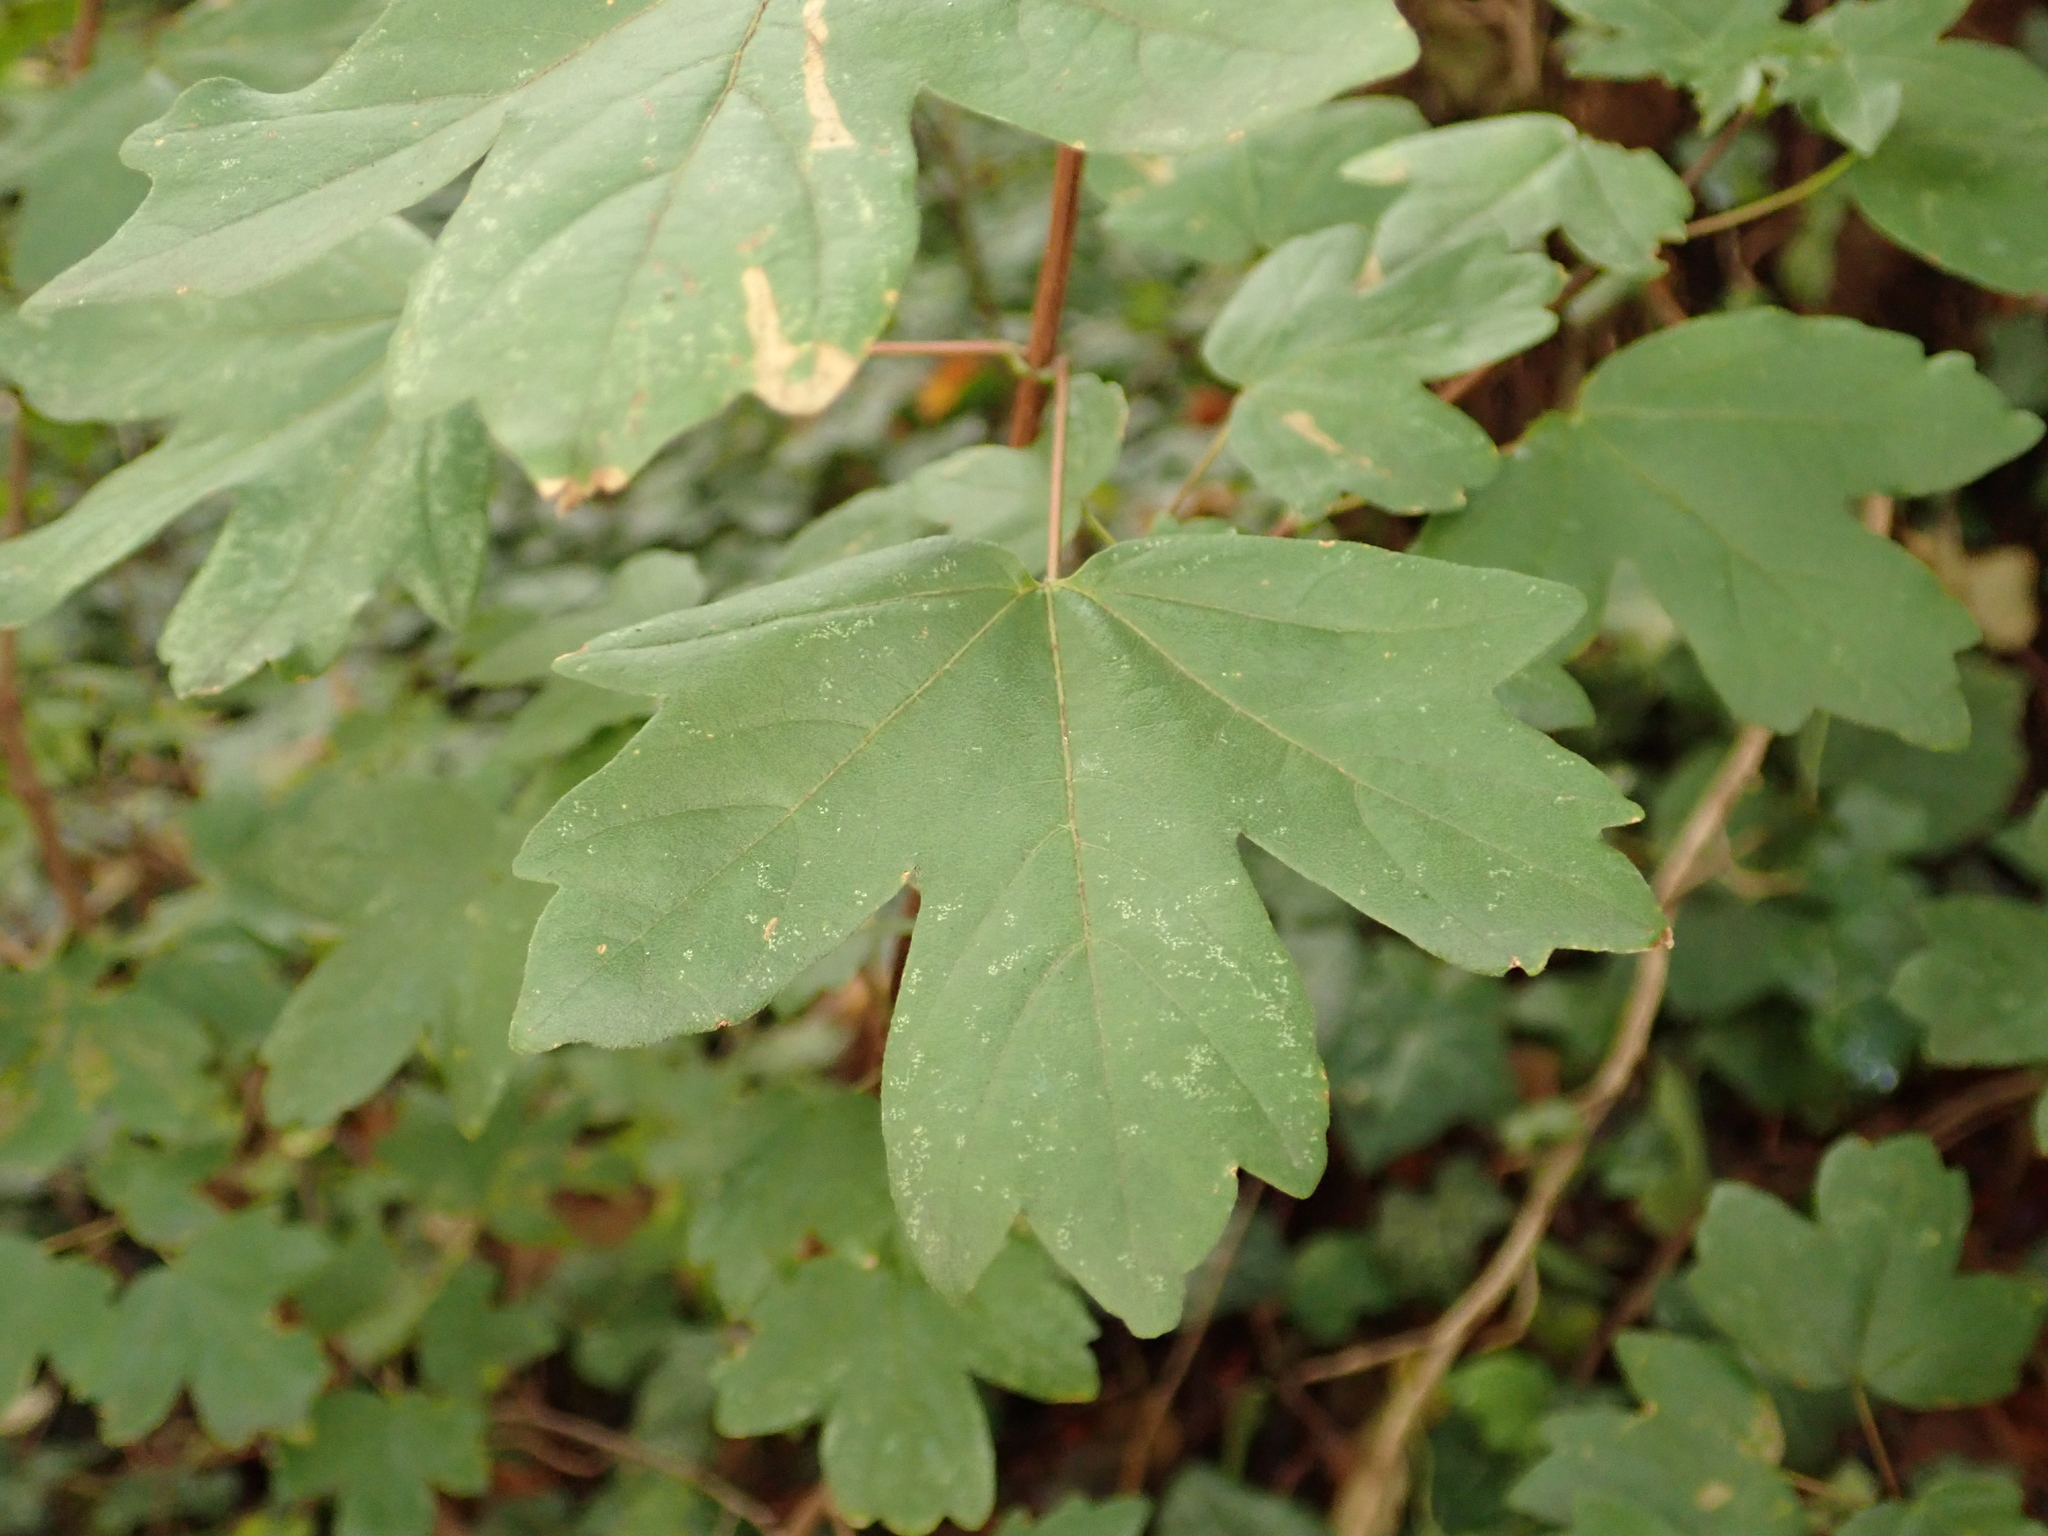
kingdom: Plantae
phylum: Tracheophyta
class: Magnoliopsida
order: Sapindales
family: Sapindaceae
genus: Acer
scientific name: Acer campestre
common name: Field maple
